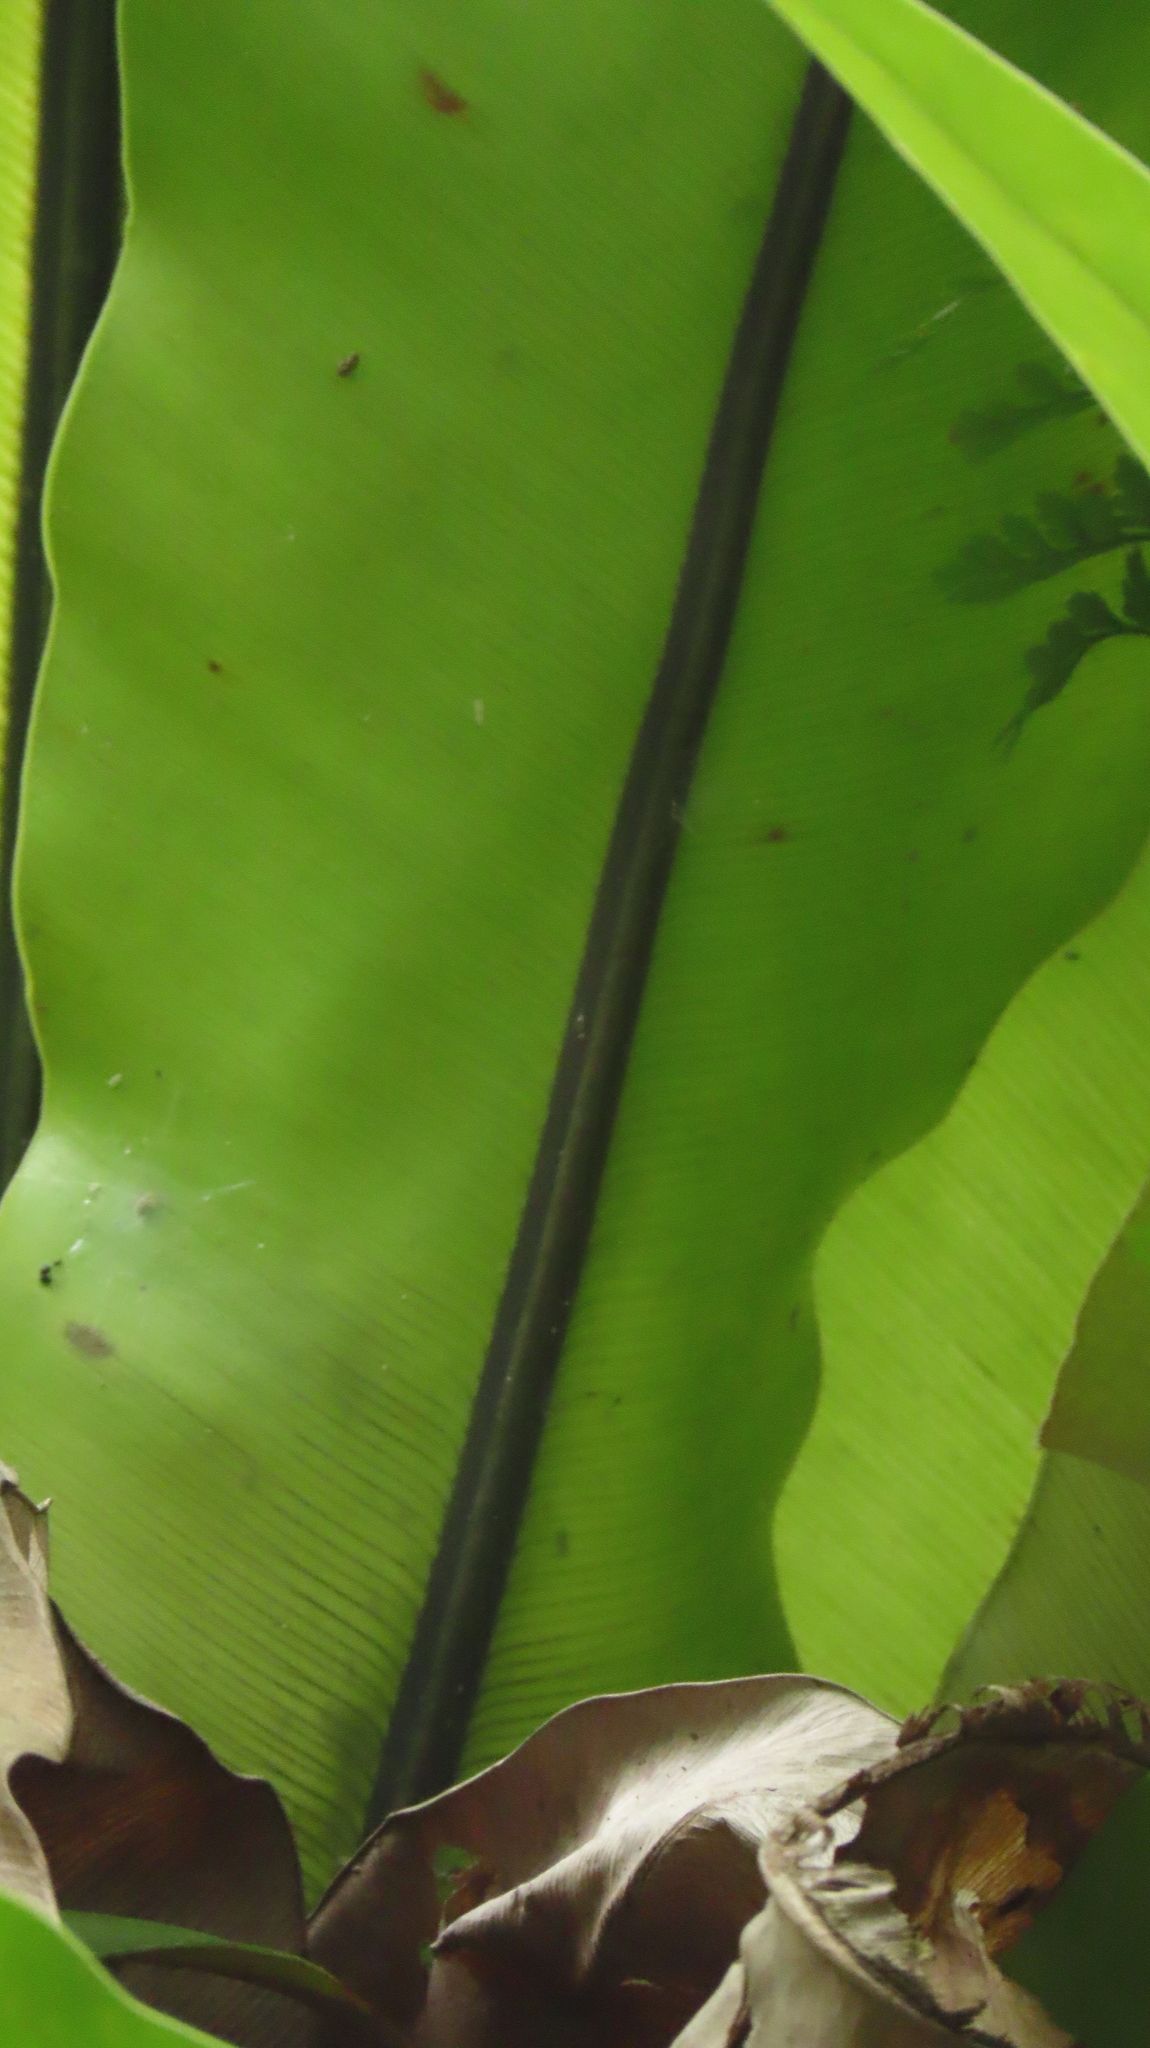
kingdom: Plantae
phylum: Tracheophyta
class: Polypodiopsida
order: Polypodiales
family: Aspleniaceae
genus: Asplenium
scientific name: Asplenium setoi
